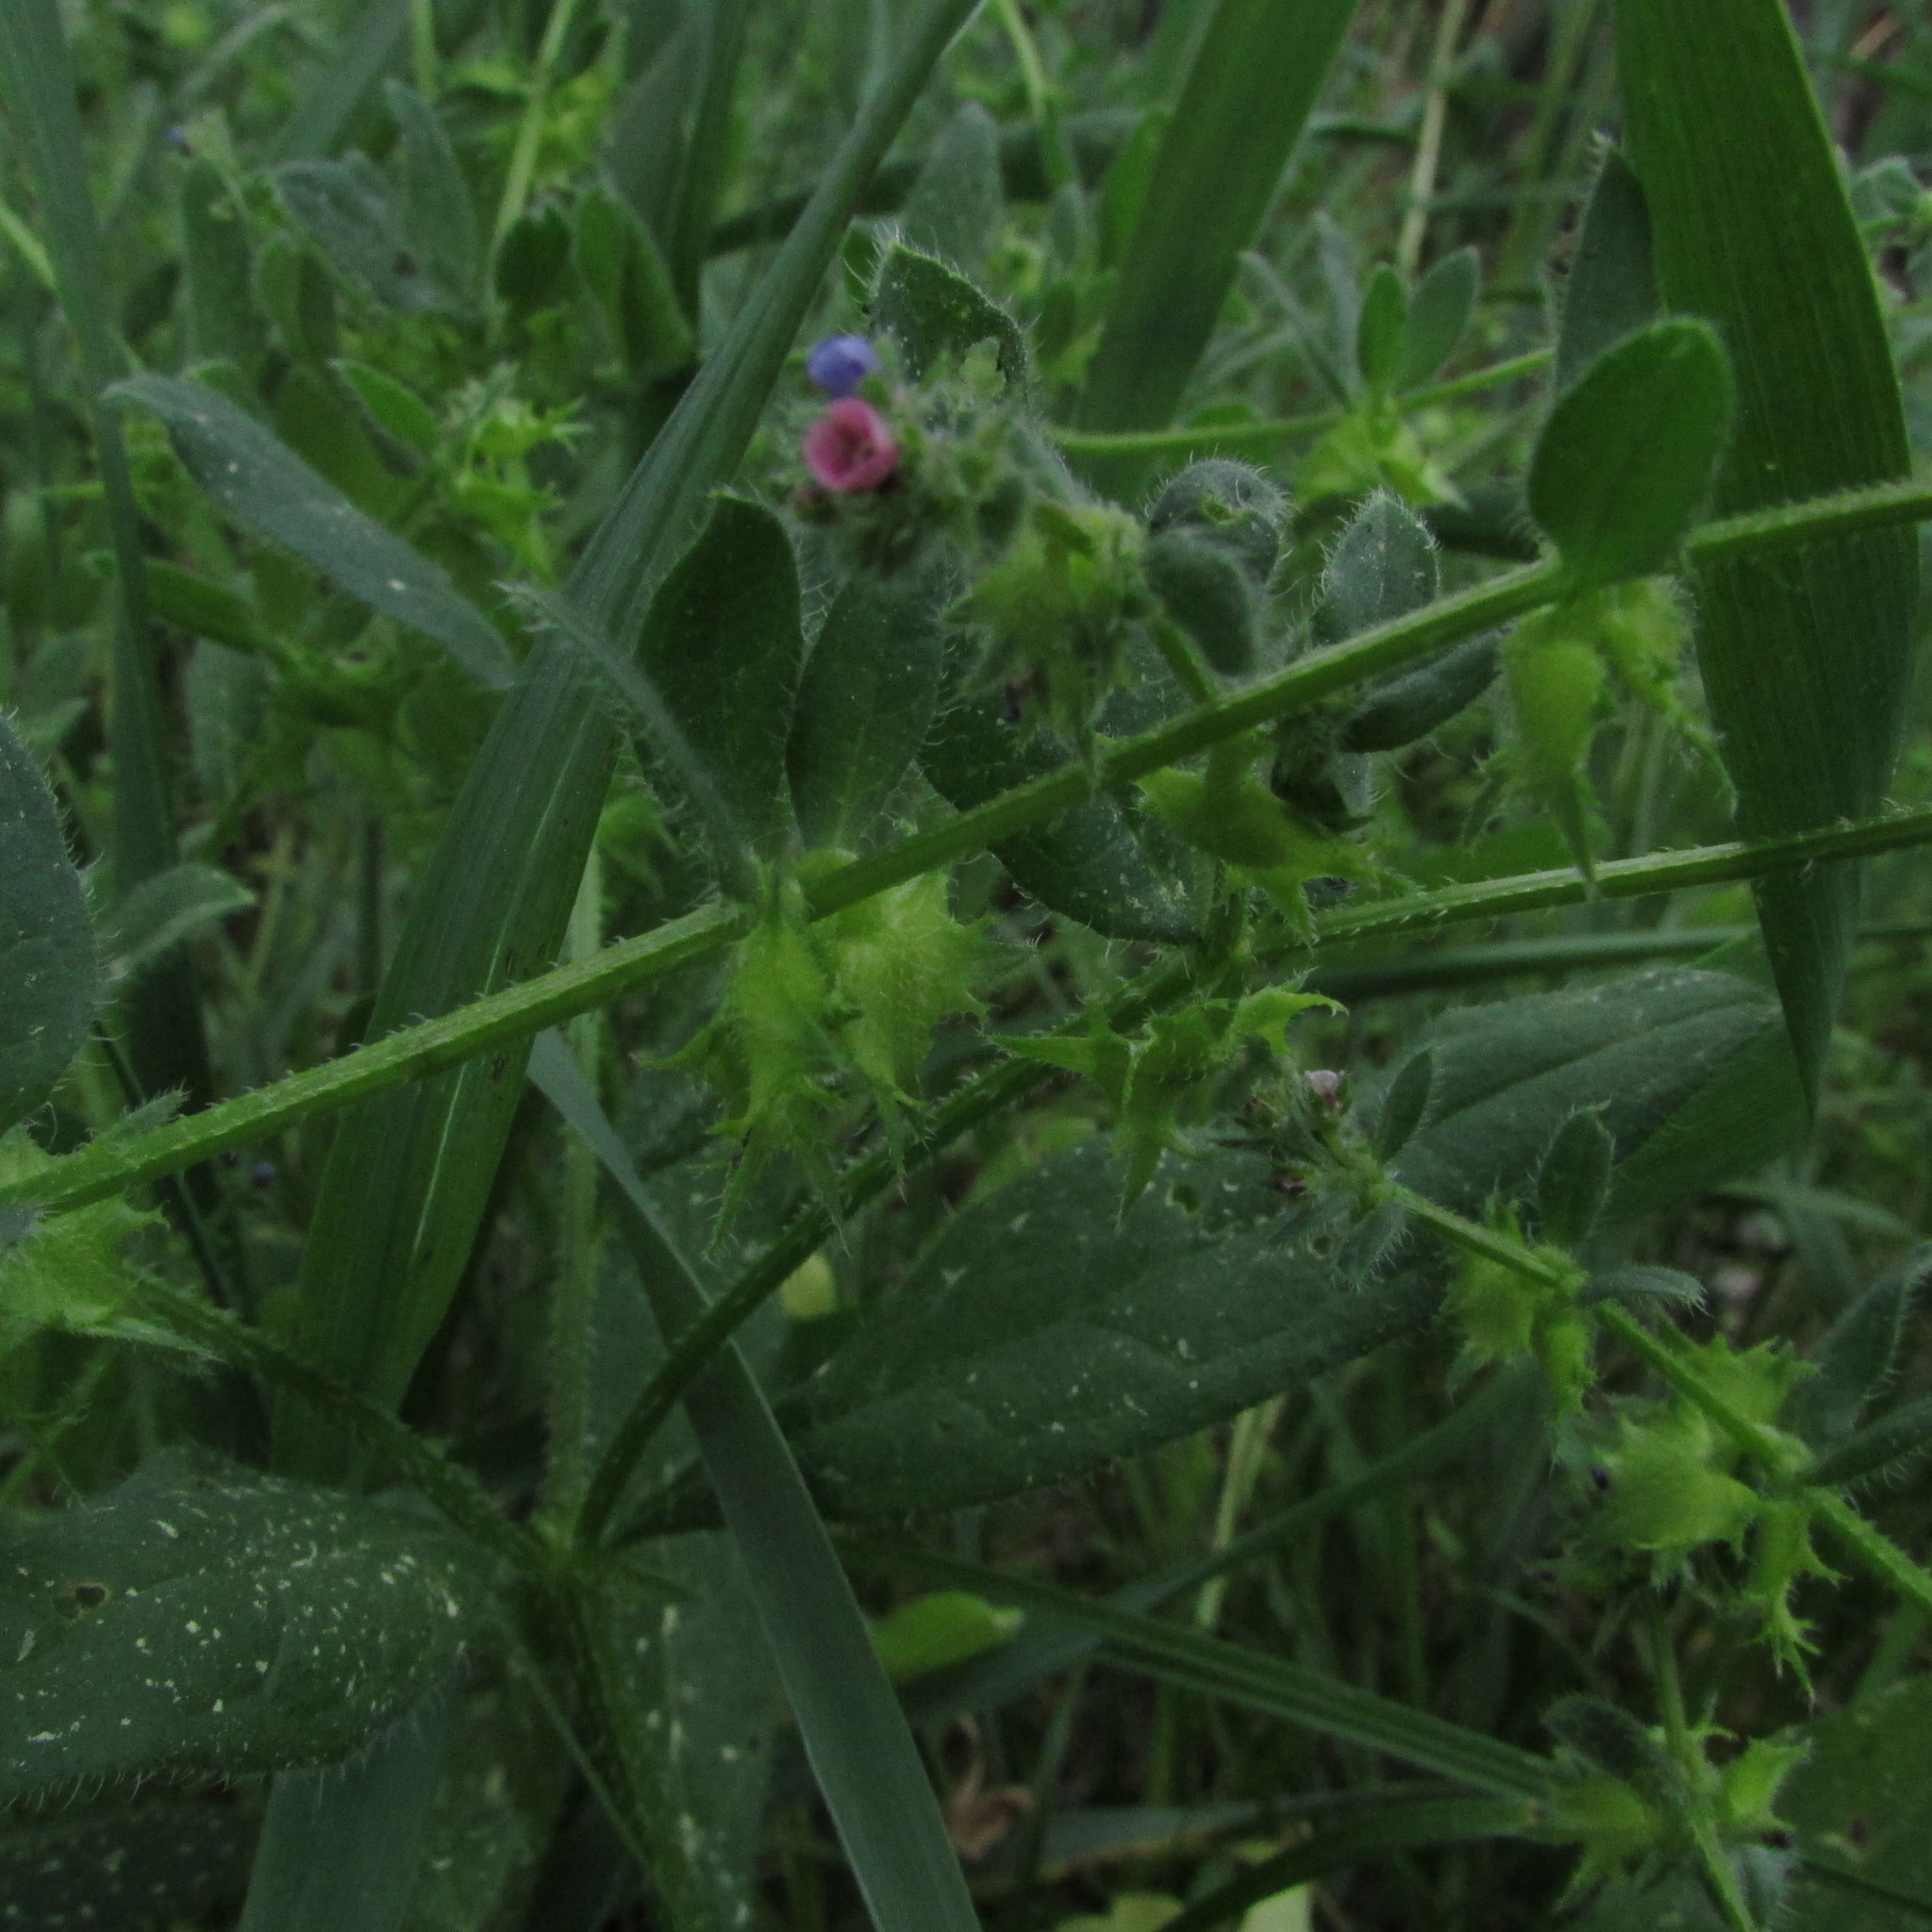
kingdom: Plantae
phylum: Tracheophyta
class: Magnoliopsida
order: Boraginales
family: Boraginaceae
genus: Asperugo
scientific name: Asperugo procumbens
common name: Madwort
